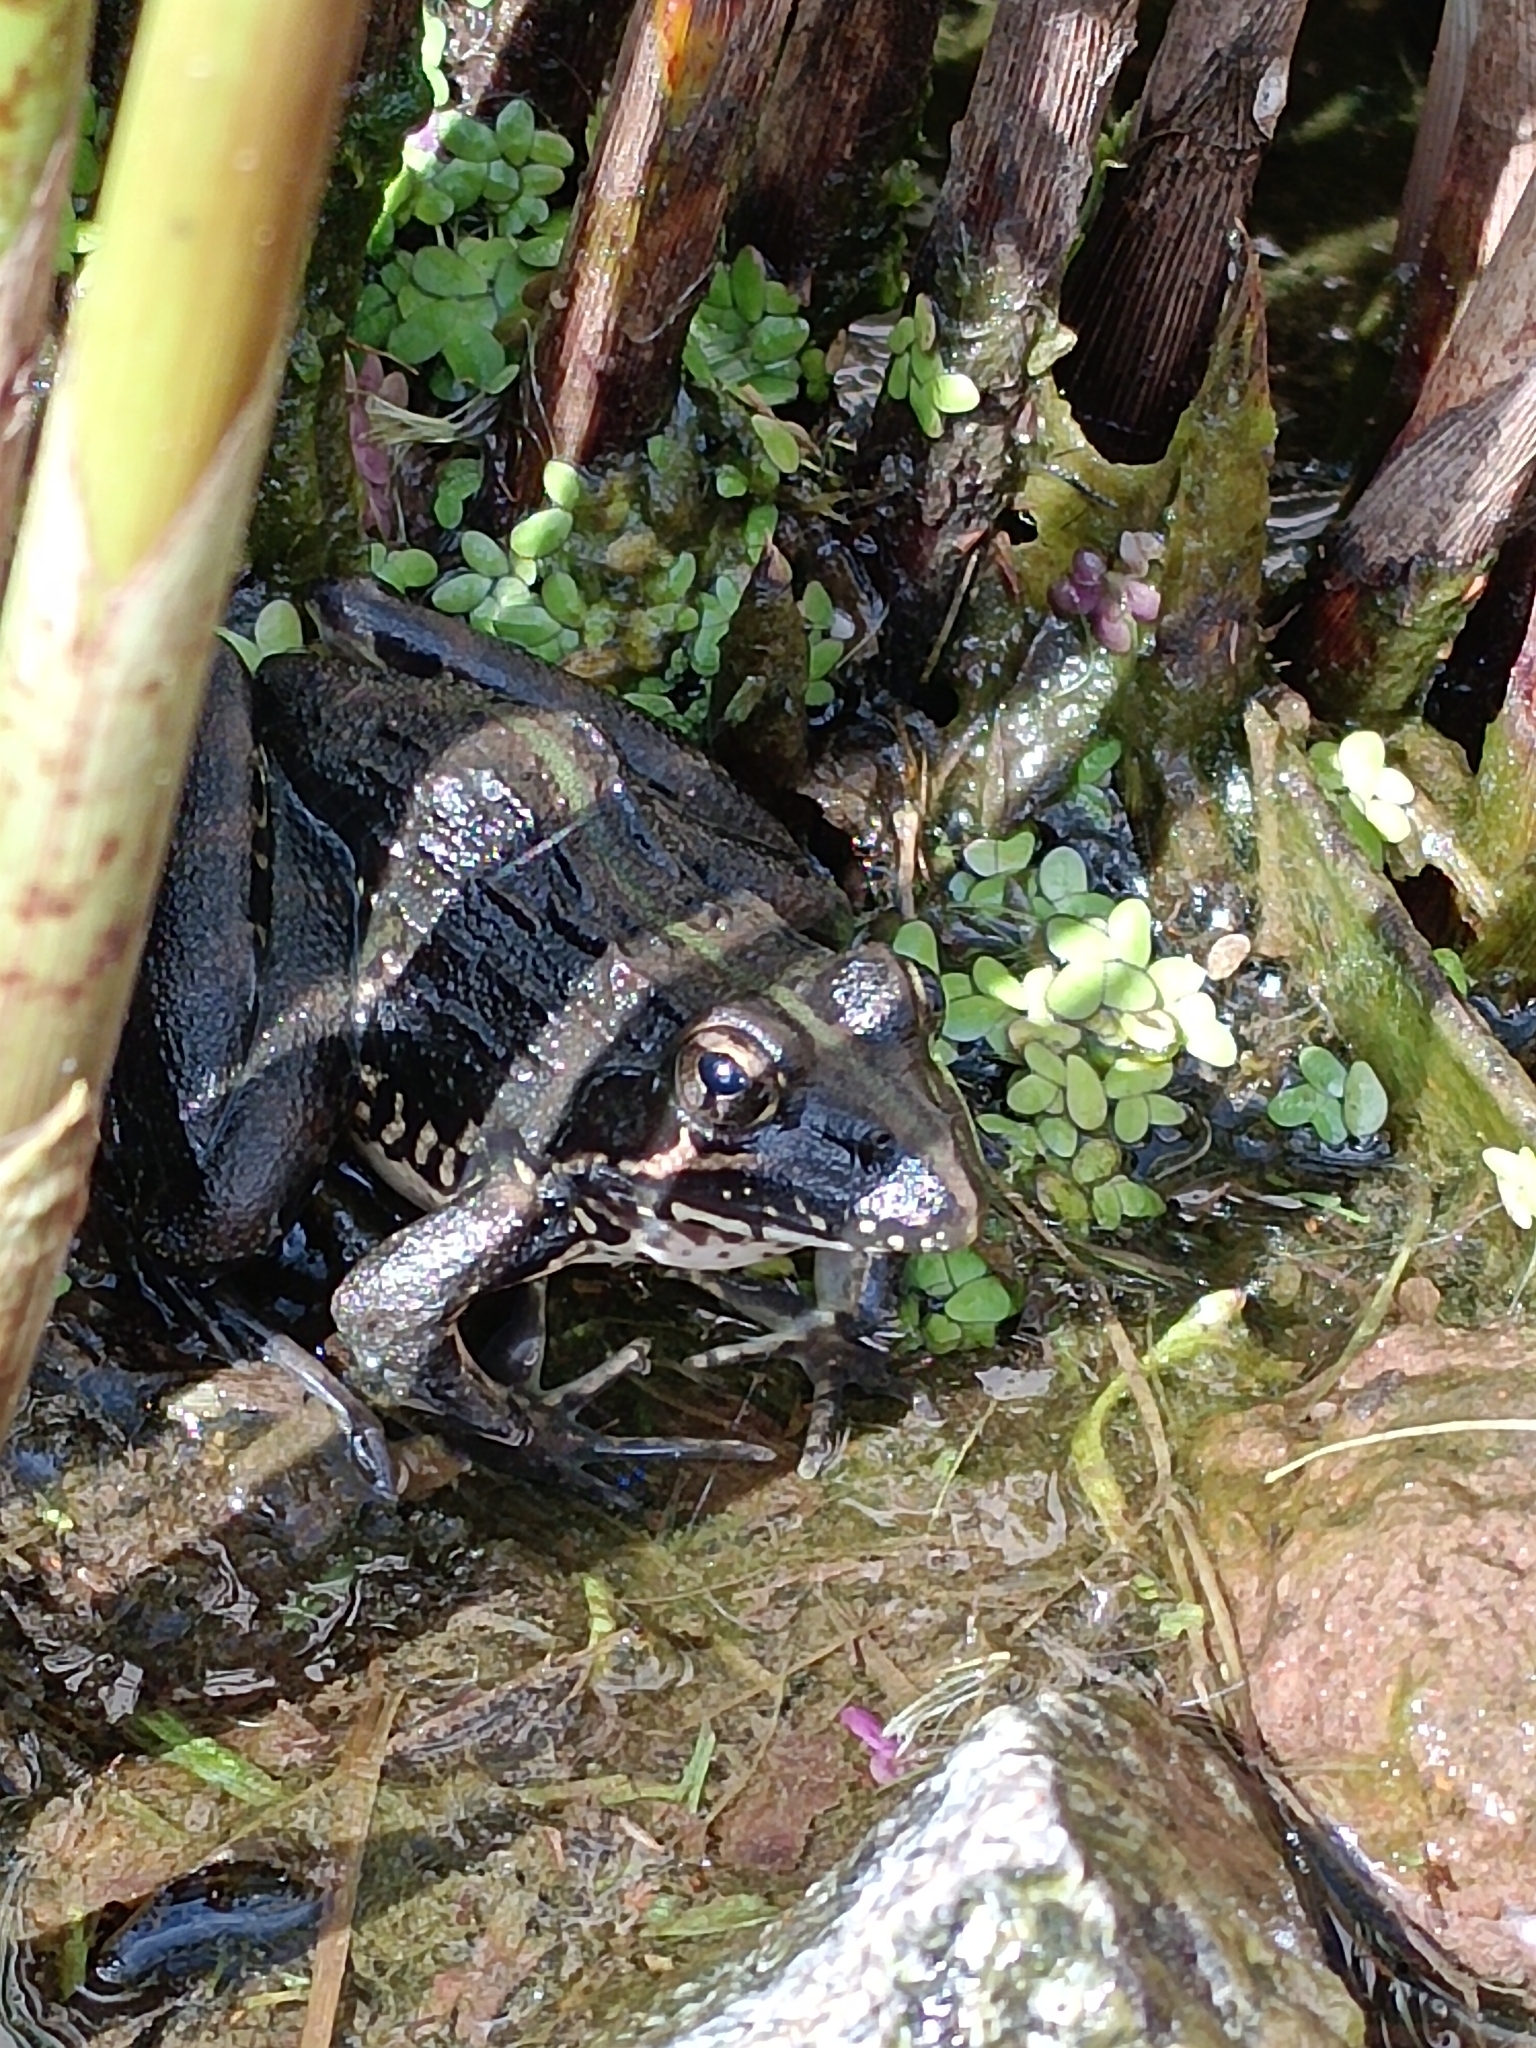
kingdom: Animalia
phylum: Chordata
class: Amphibia
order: Anura
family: Pyxicephalidae
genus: Amietia
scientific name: Amietia delalandii
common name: Delalande's river frog
